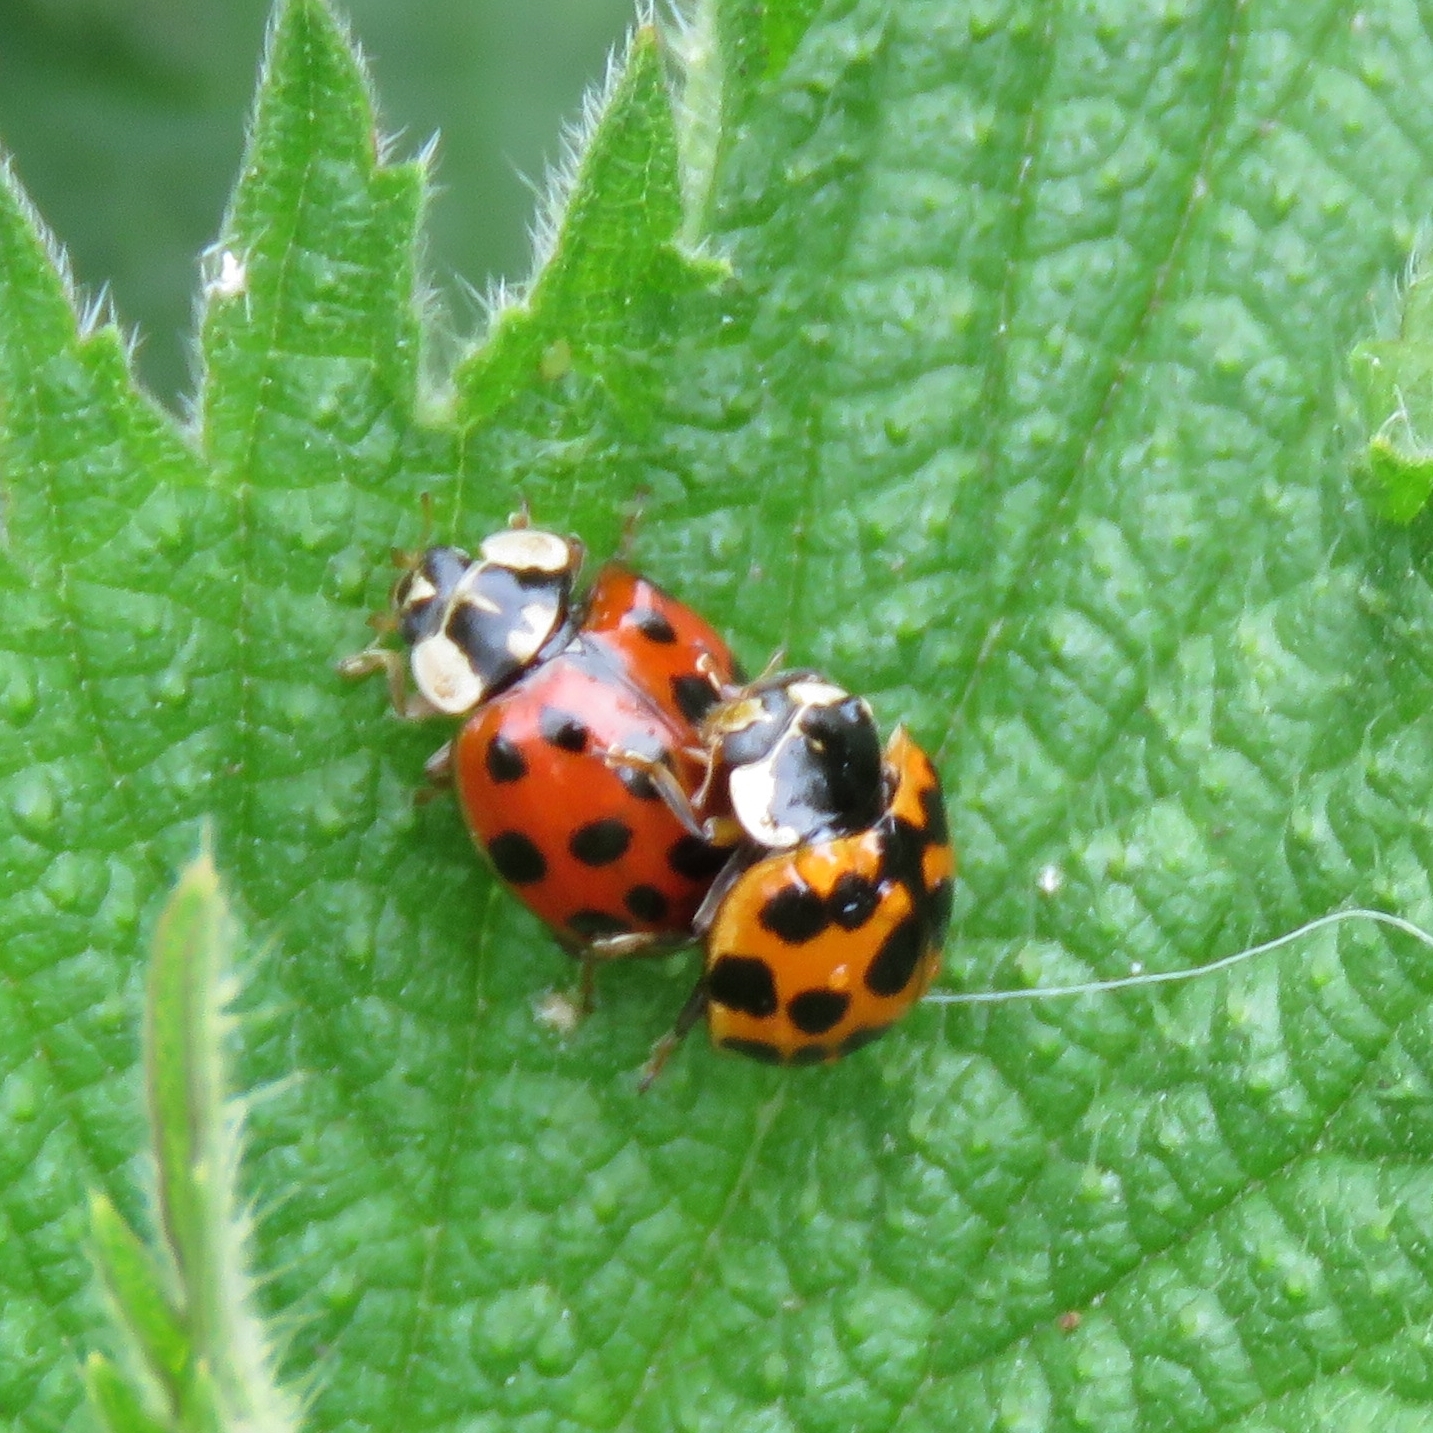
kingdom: Animalia
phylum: Arthropoda
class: Insecta
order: Coleoptera
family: Coccinellidae
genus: Harmonia
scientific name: Harmonia axyridis
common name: Harlequin ladybird
